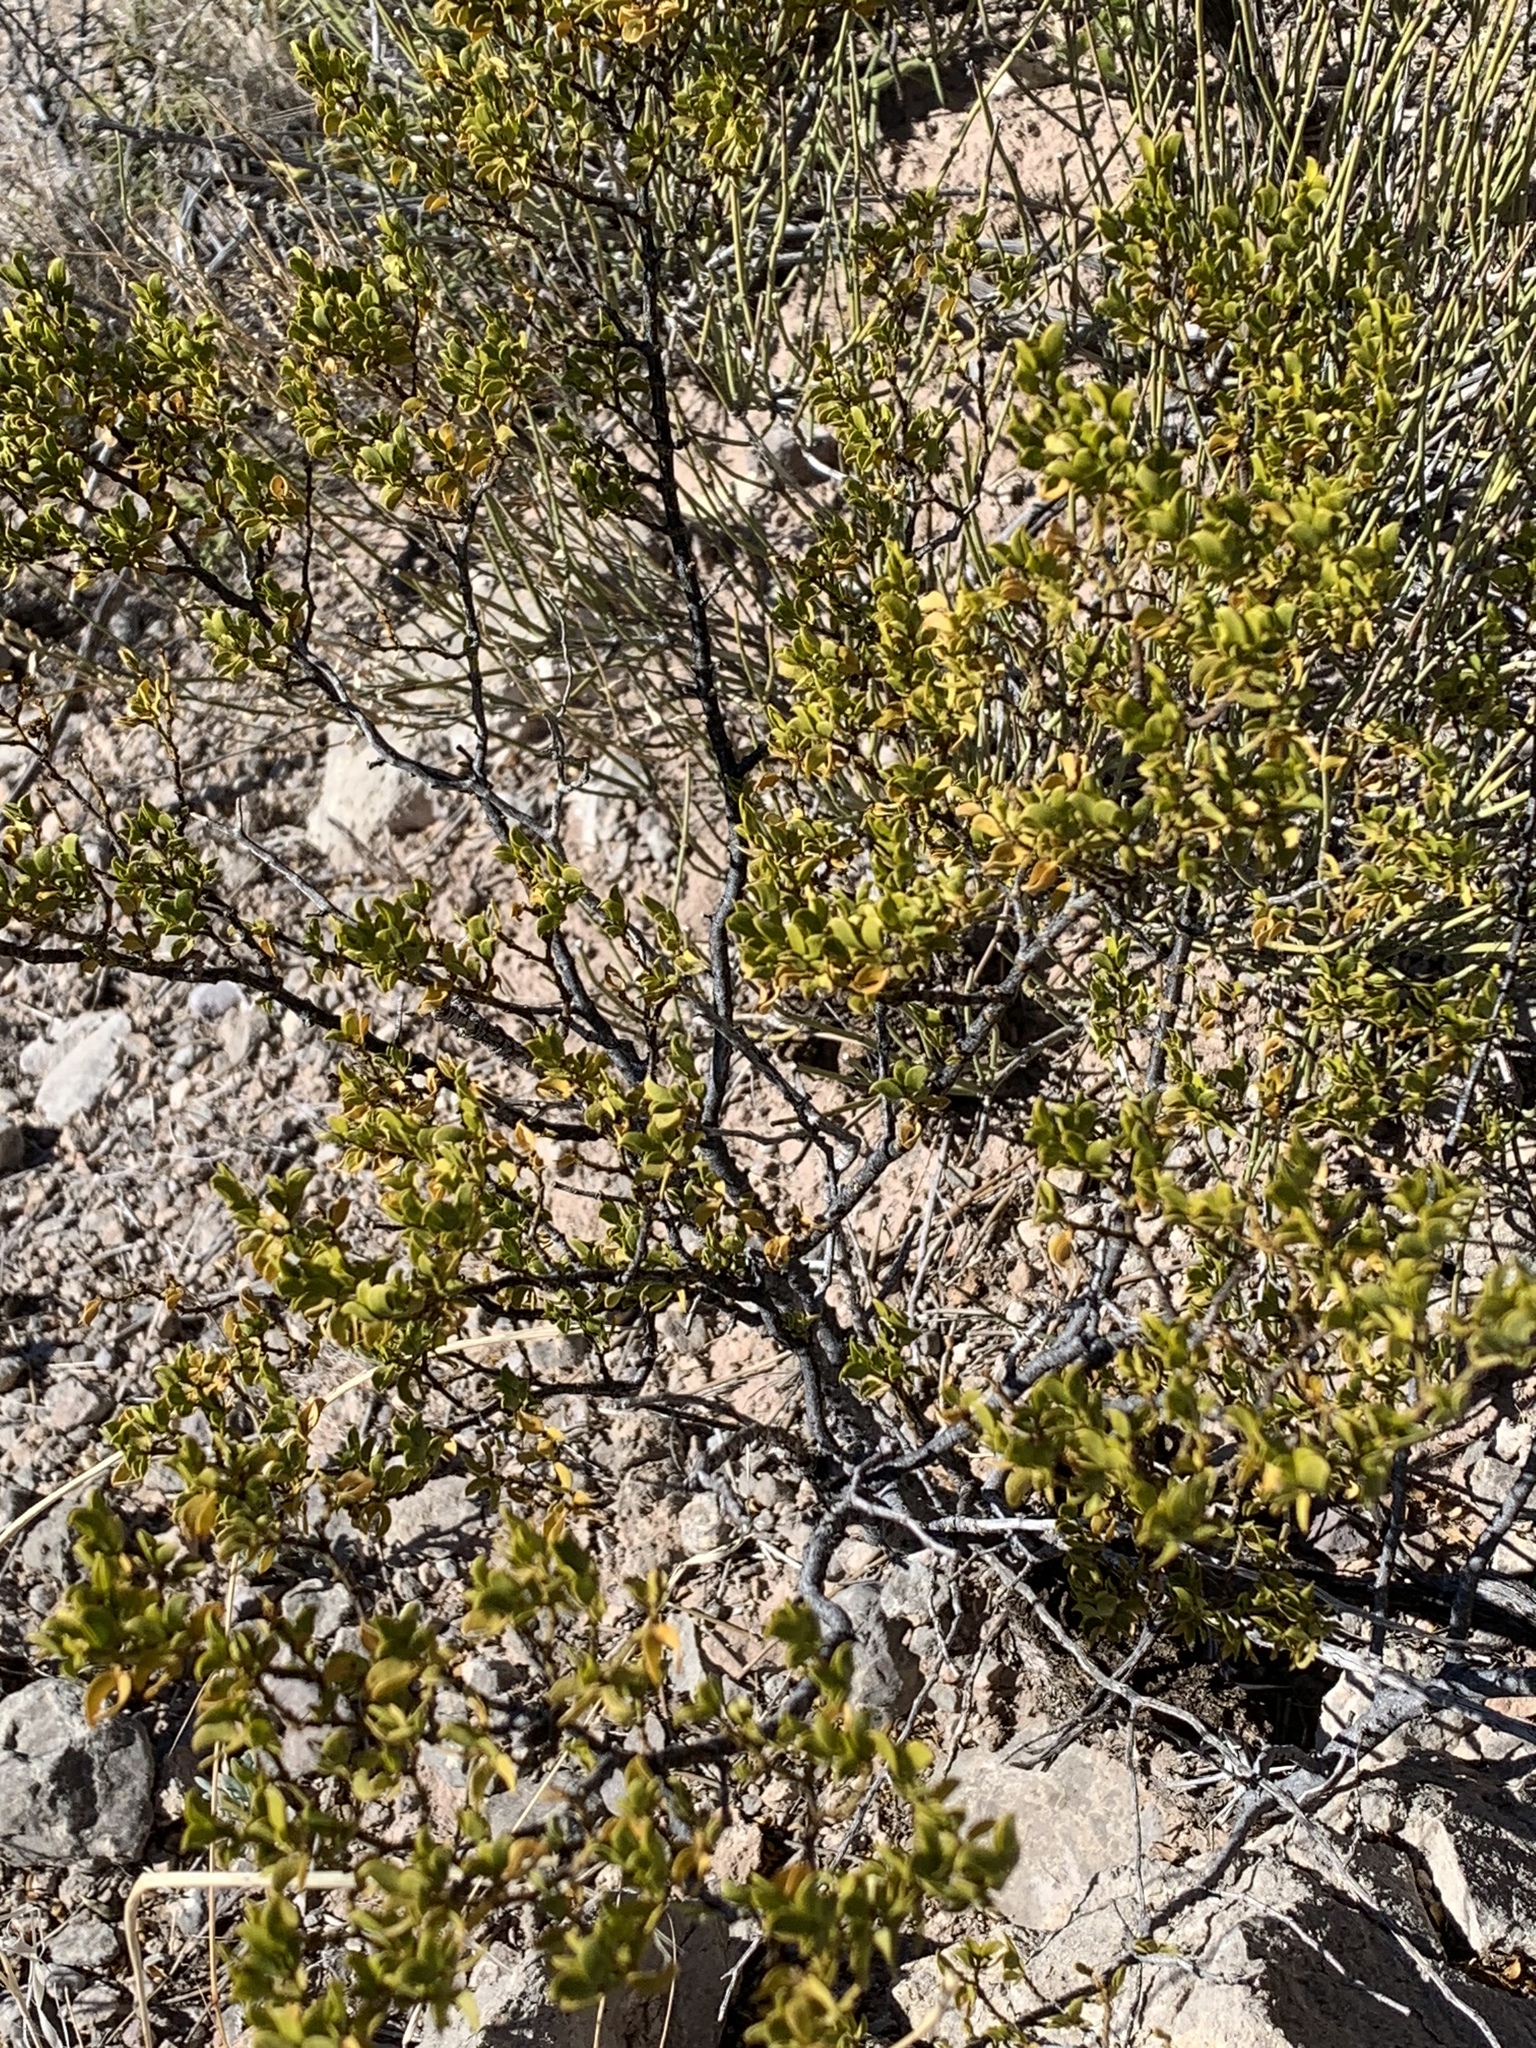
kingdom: Plantae
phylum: Tracheophyta
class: Magnoliopsida
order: Zygophyllales
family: Zygophyllaceae
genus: Larrea
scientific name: Larrea tridentata
